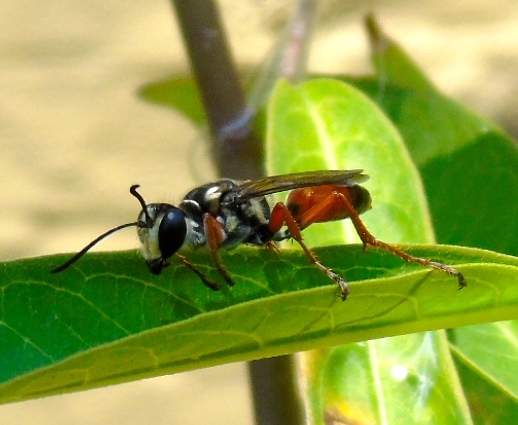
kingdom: Animalia
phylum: Arthropoda
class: Insecta
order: Hymenoptera
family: Sphecidae
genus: Sphex
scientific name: Sphex
